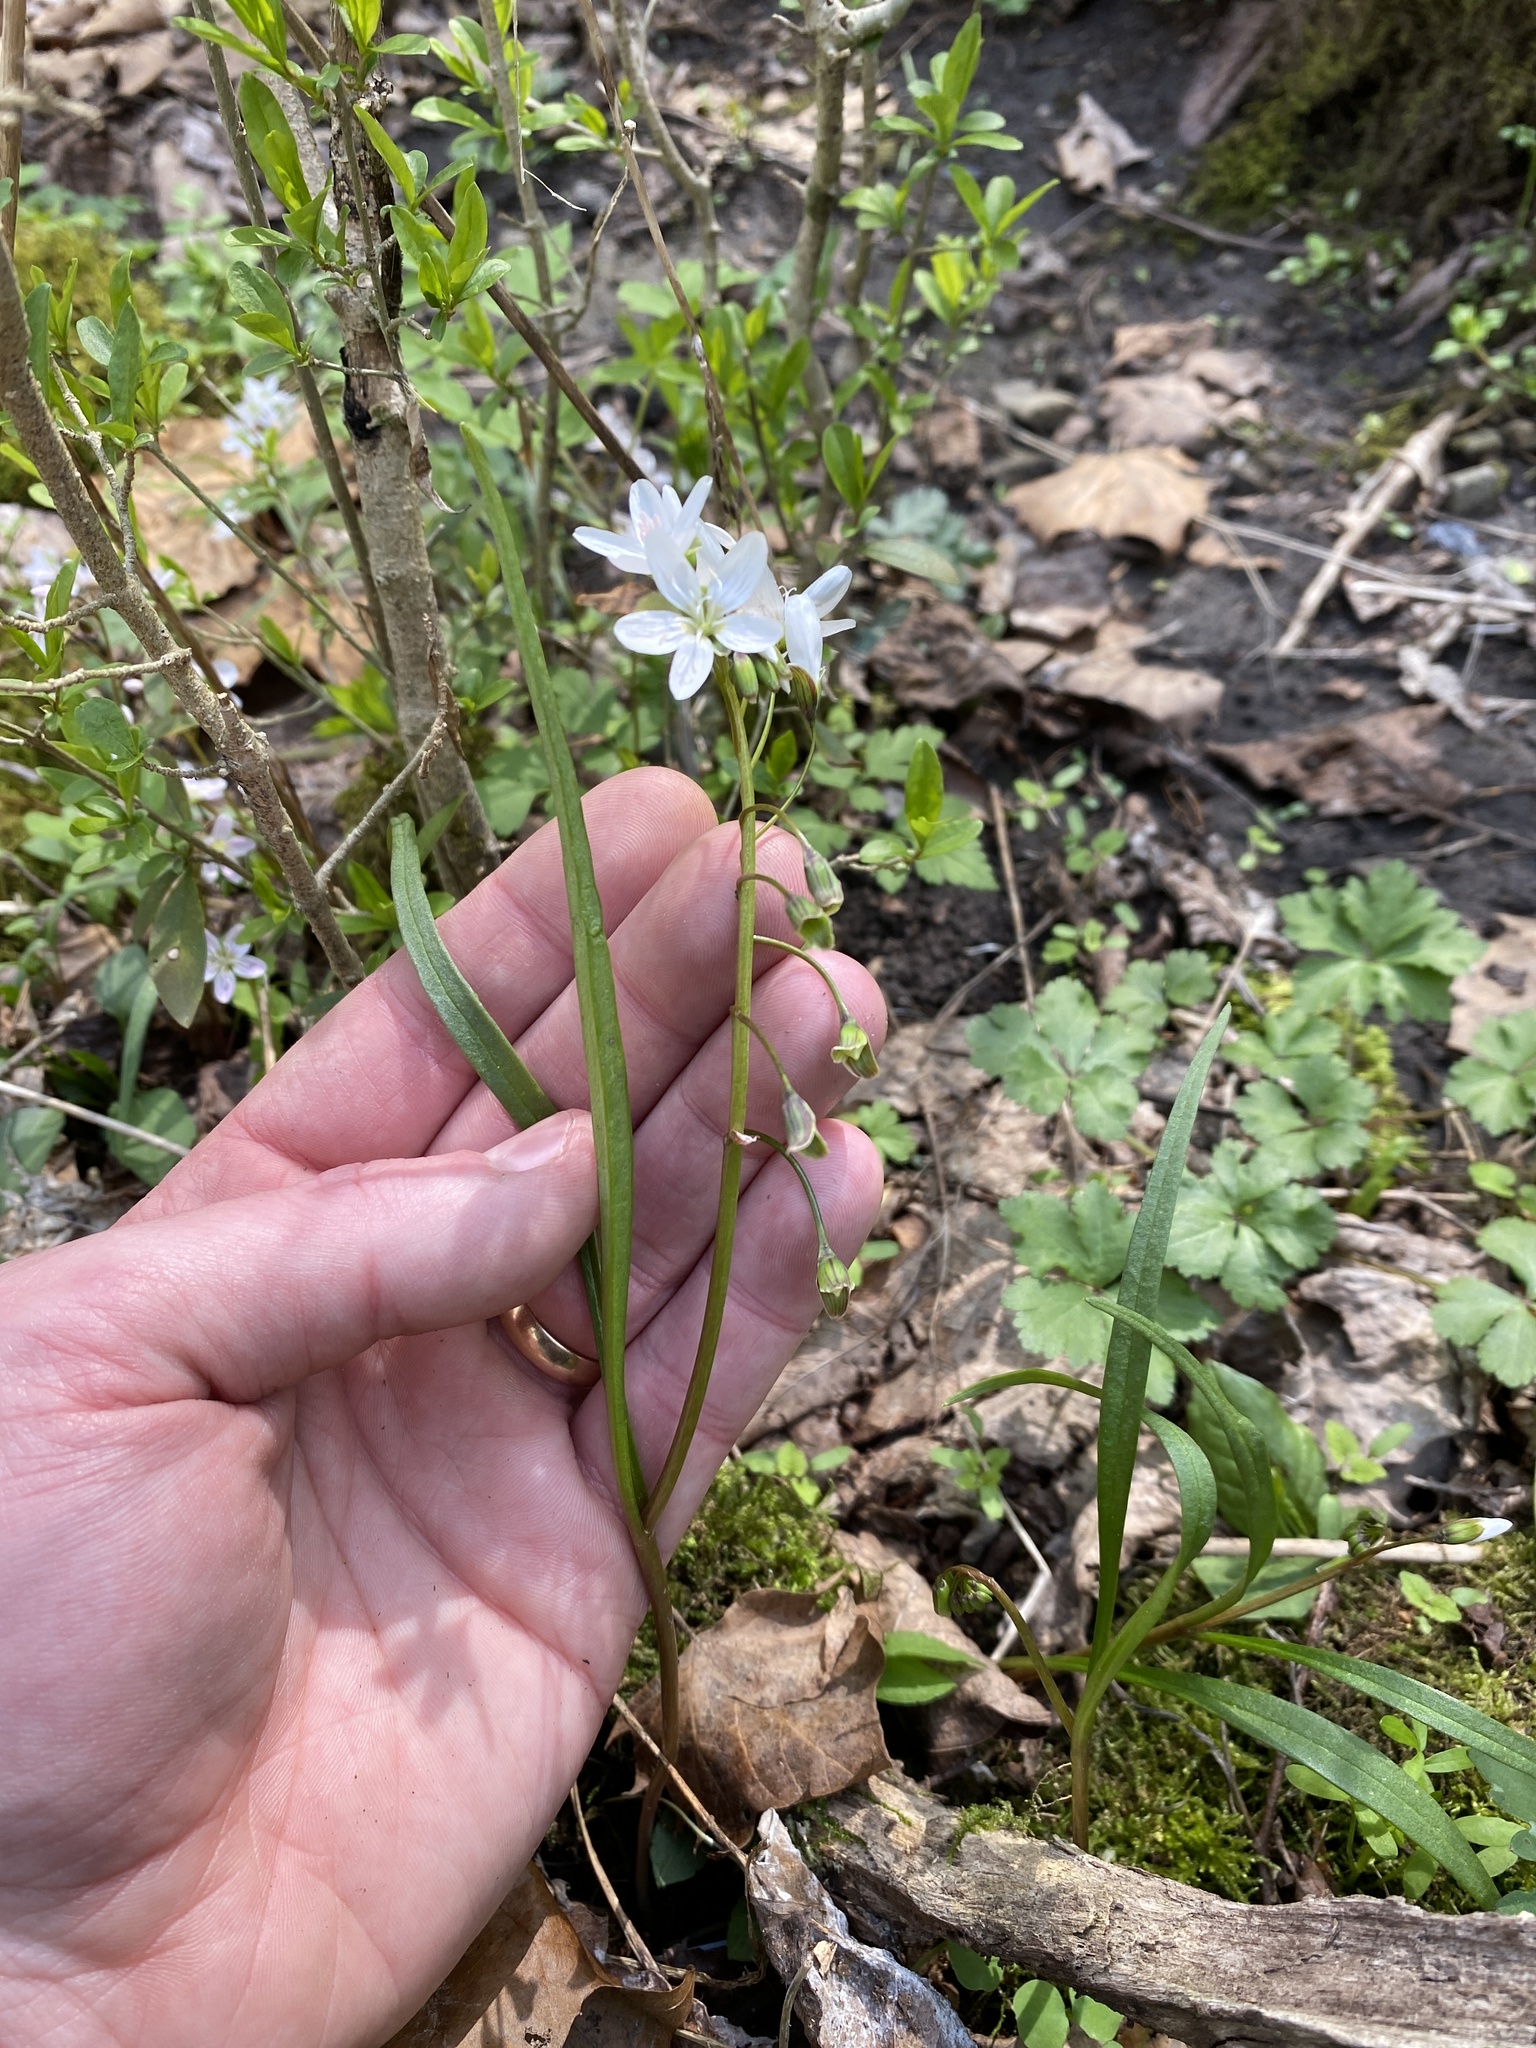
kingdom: Plantae
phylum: Tracheophyta
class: Magnoliopsida
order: Caryophyllales
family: Montiaceae
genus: Claytonia
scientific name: Claytonia virginica
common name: Virginia springbeauty
